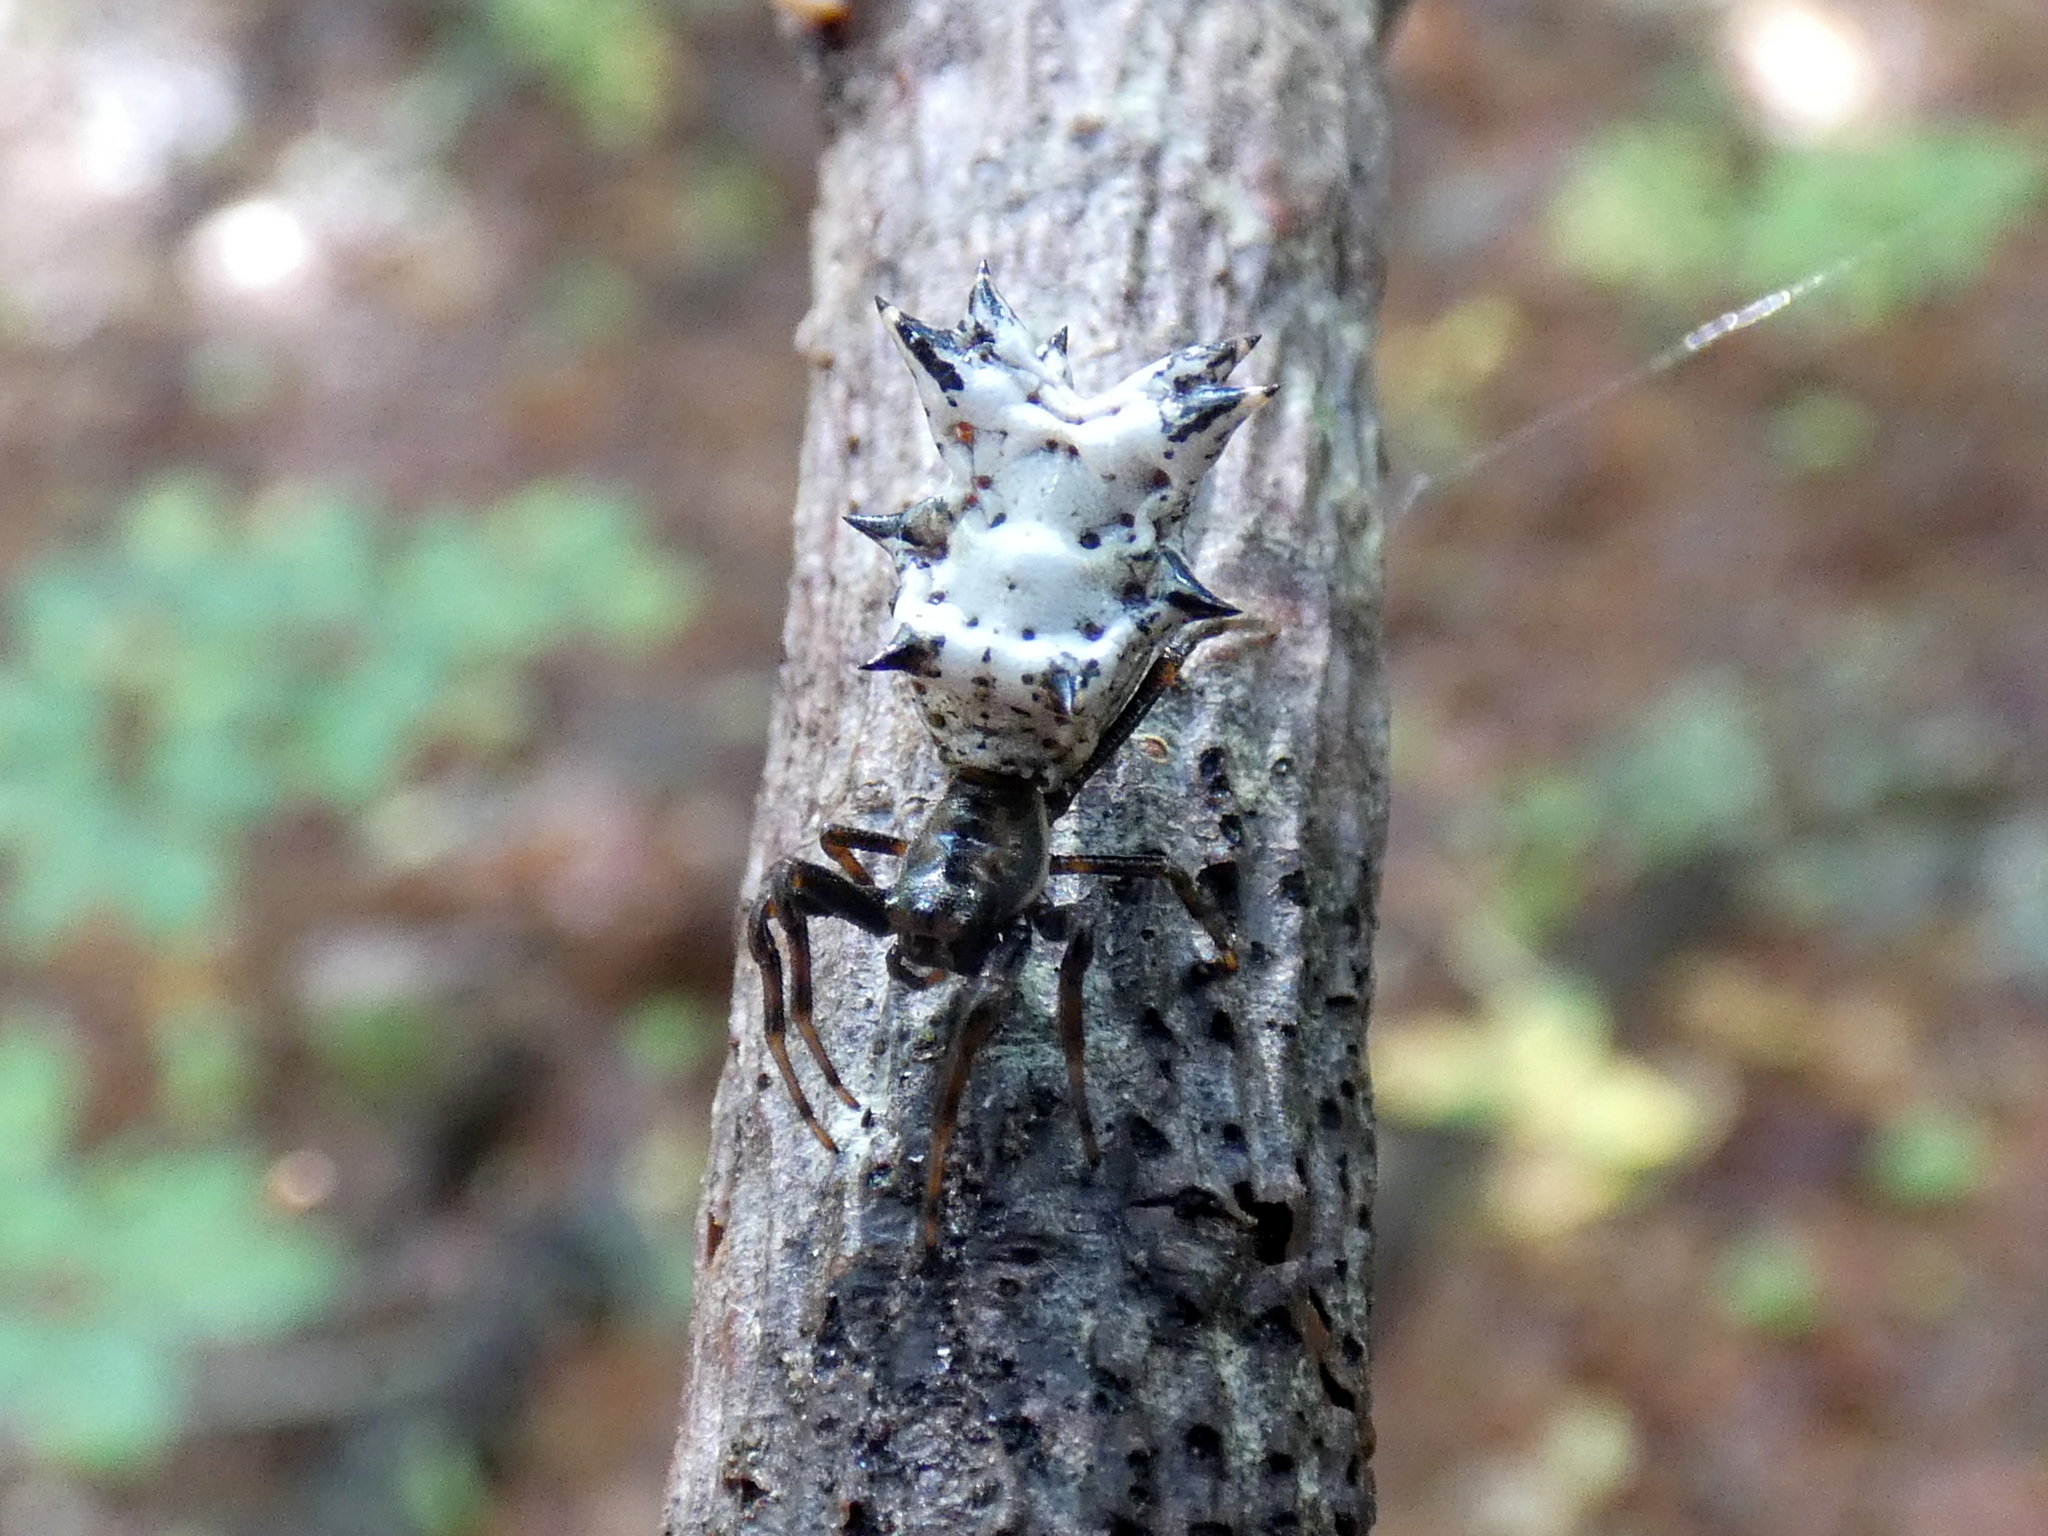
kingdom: Animalia
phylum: Arthropoda
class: Arachnida
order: Araneae
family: Araneidae
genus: Micrathena
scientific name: Micrathena gracilis
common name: Orb weavers
